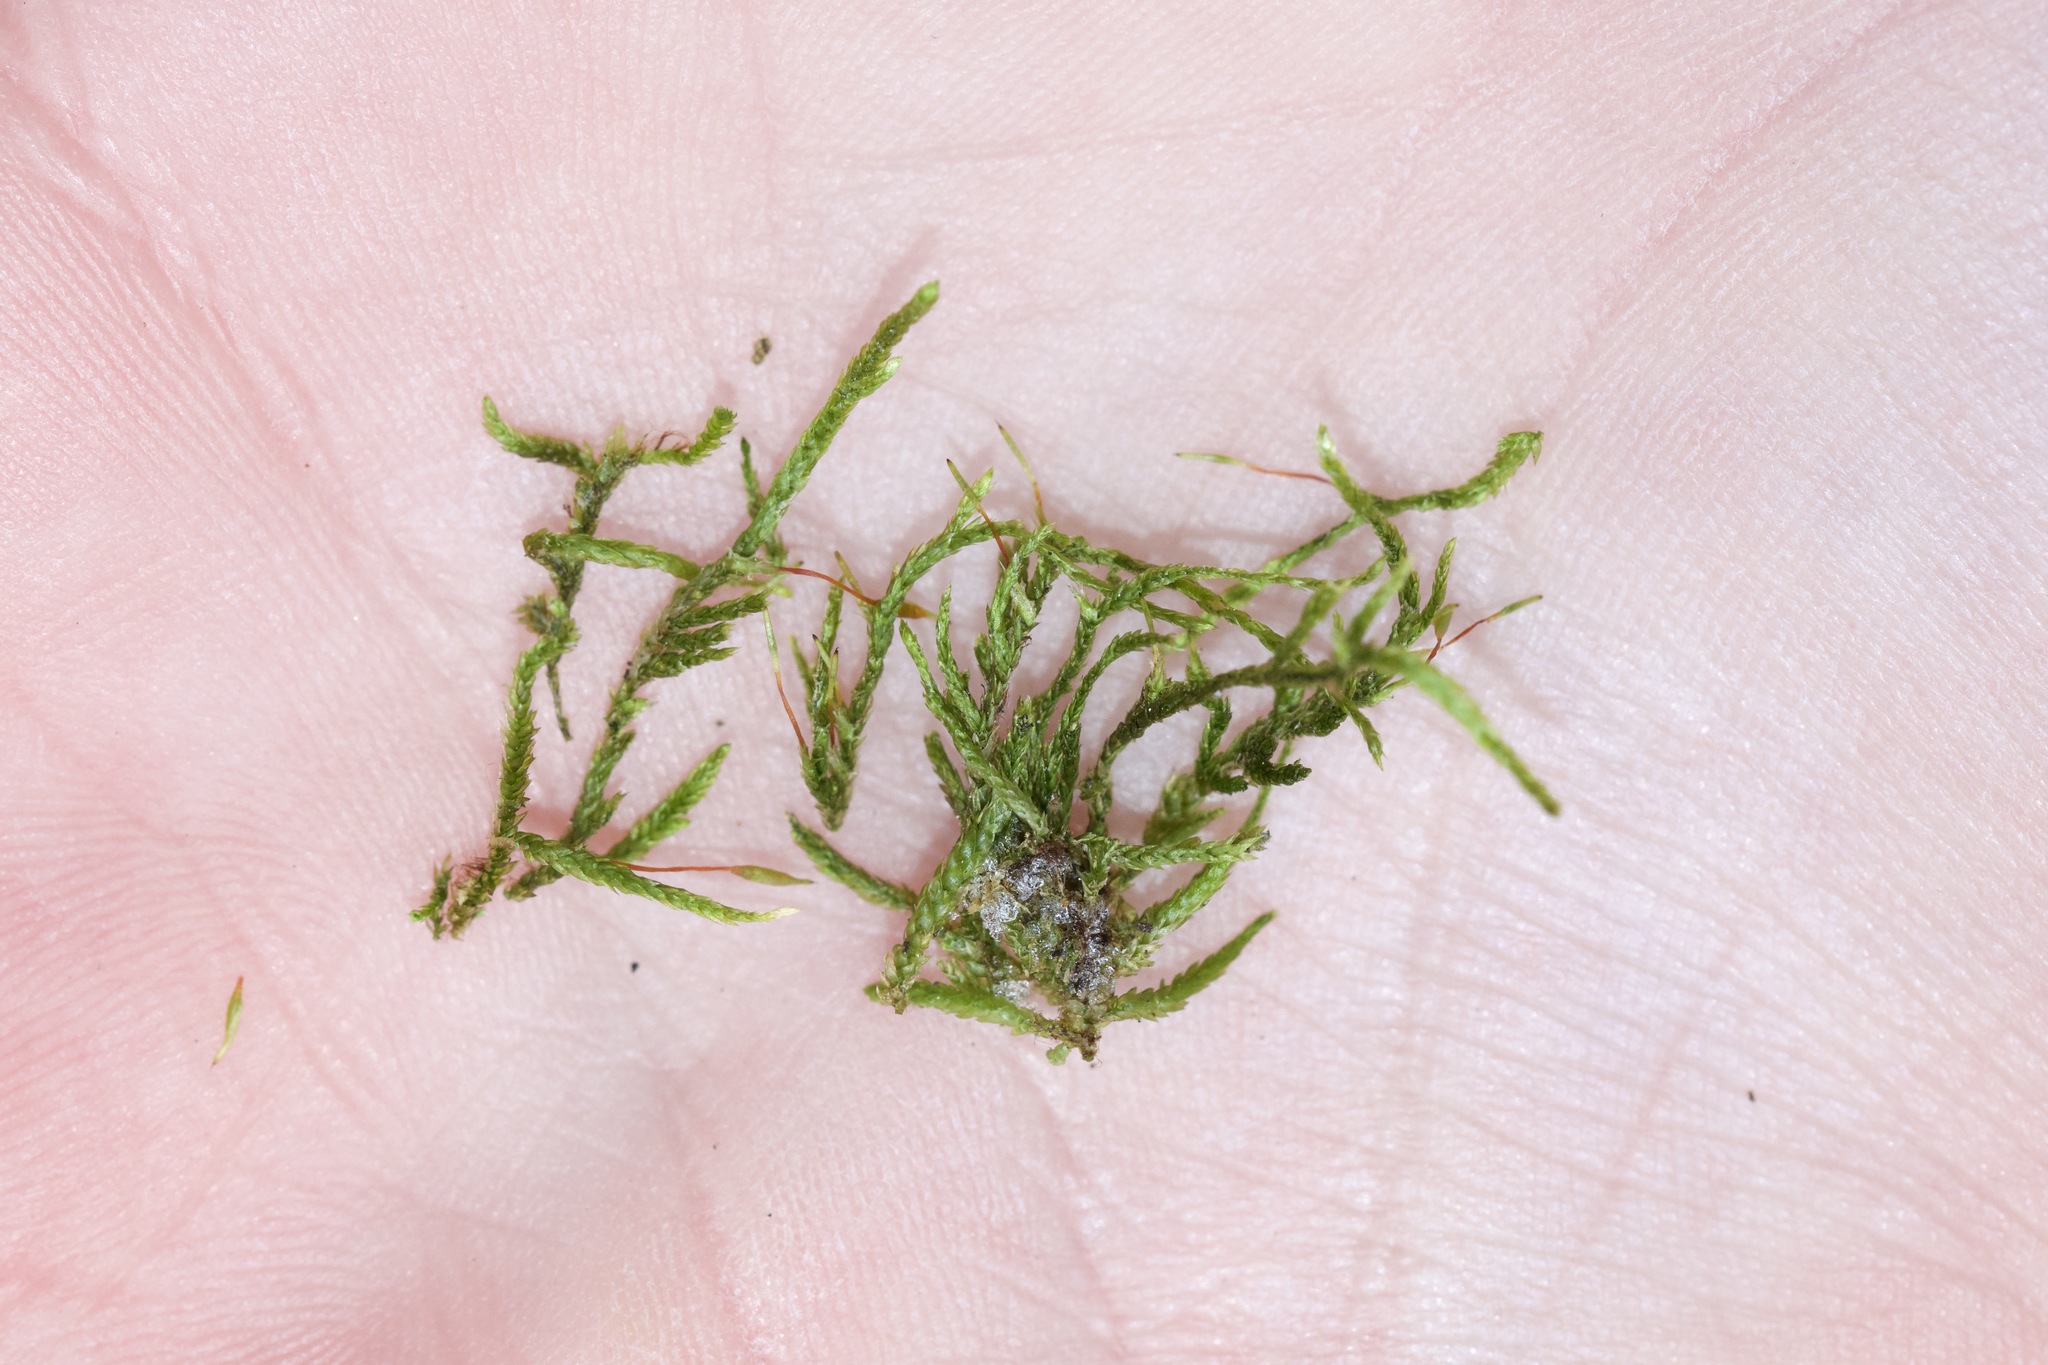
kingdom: Plantae
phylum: Bryophyta
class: Bryopsida
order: Hypnales
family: Entodontaceae
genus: Entodon
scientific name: Entodon cladorrhizans
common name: Flat-stemmed entodon moss
